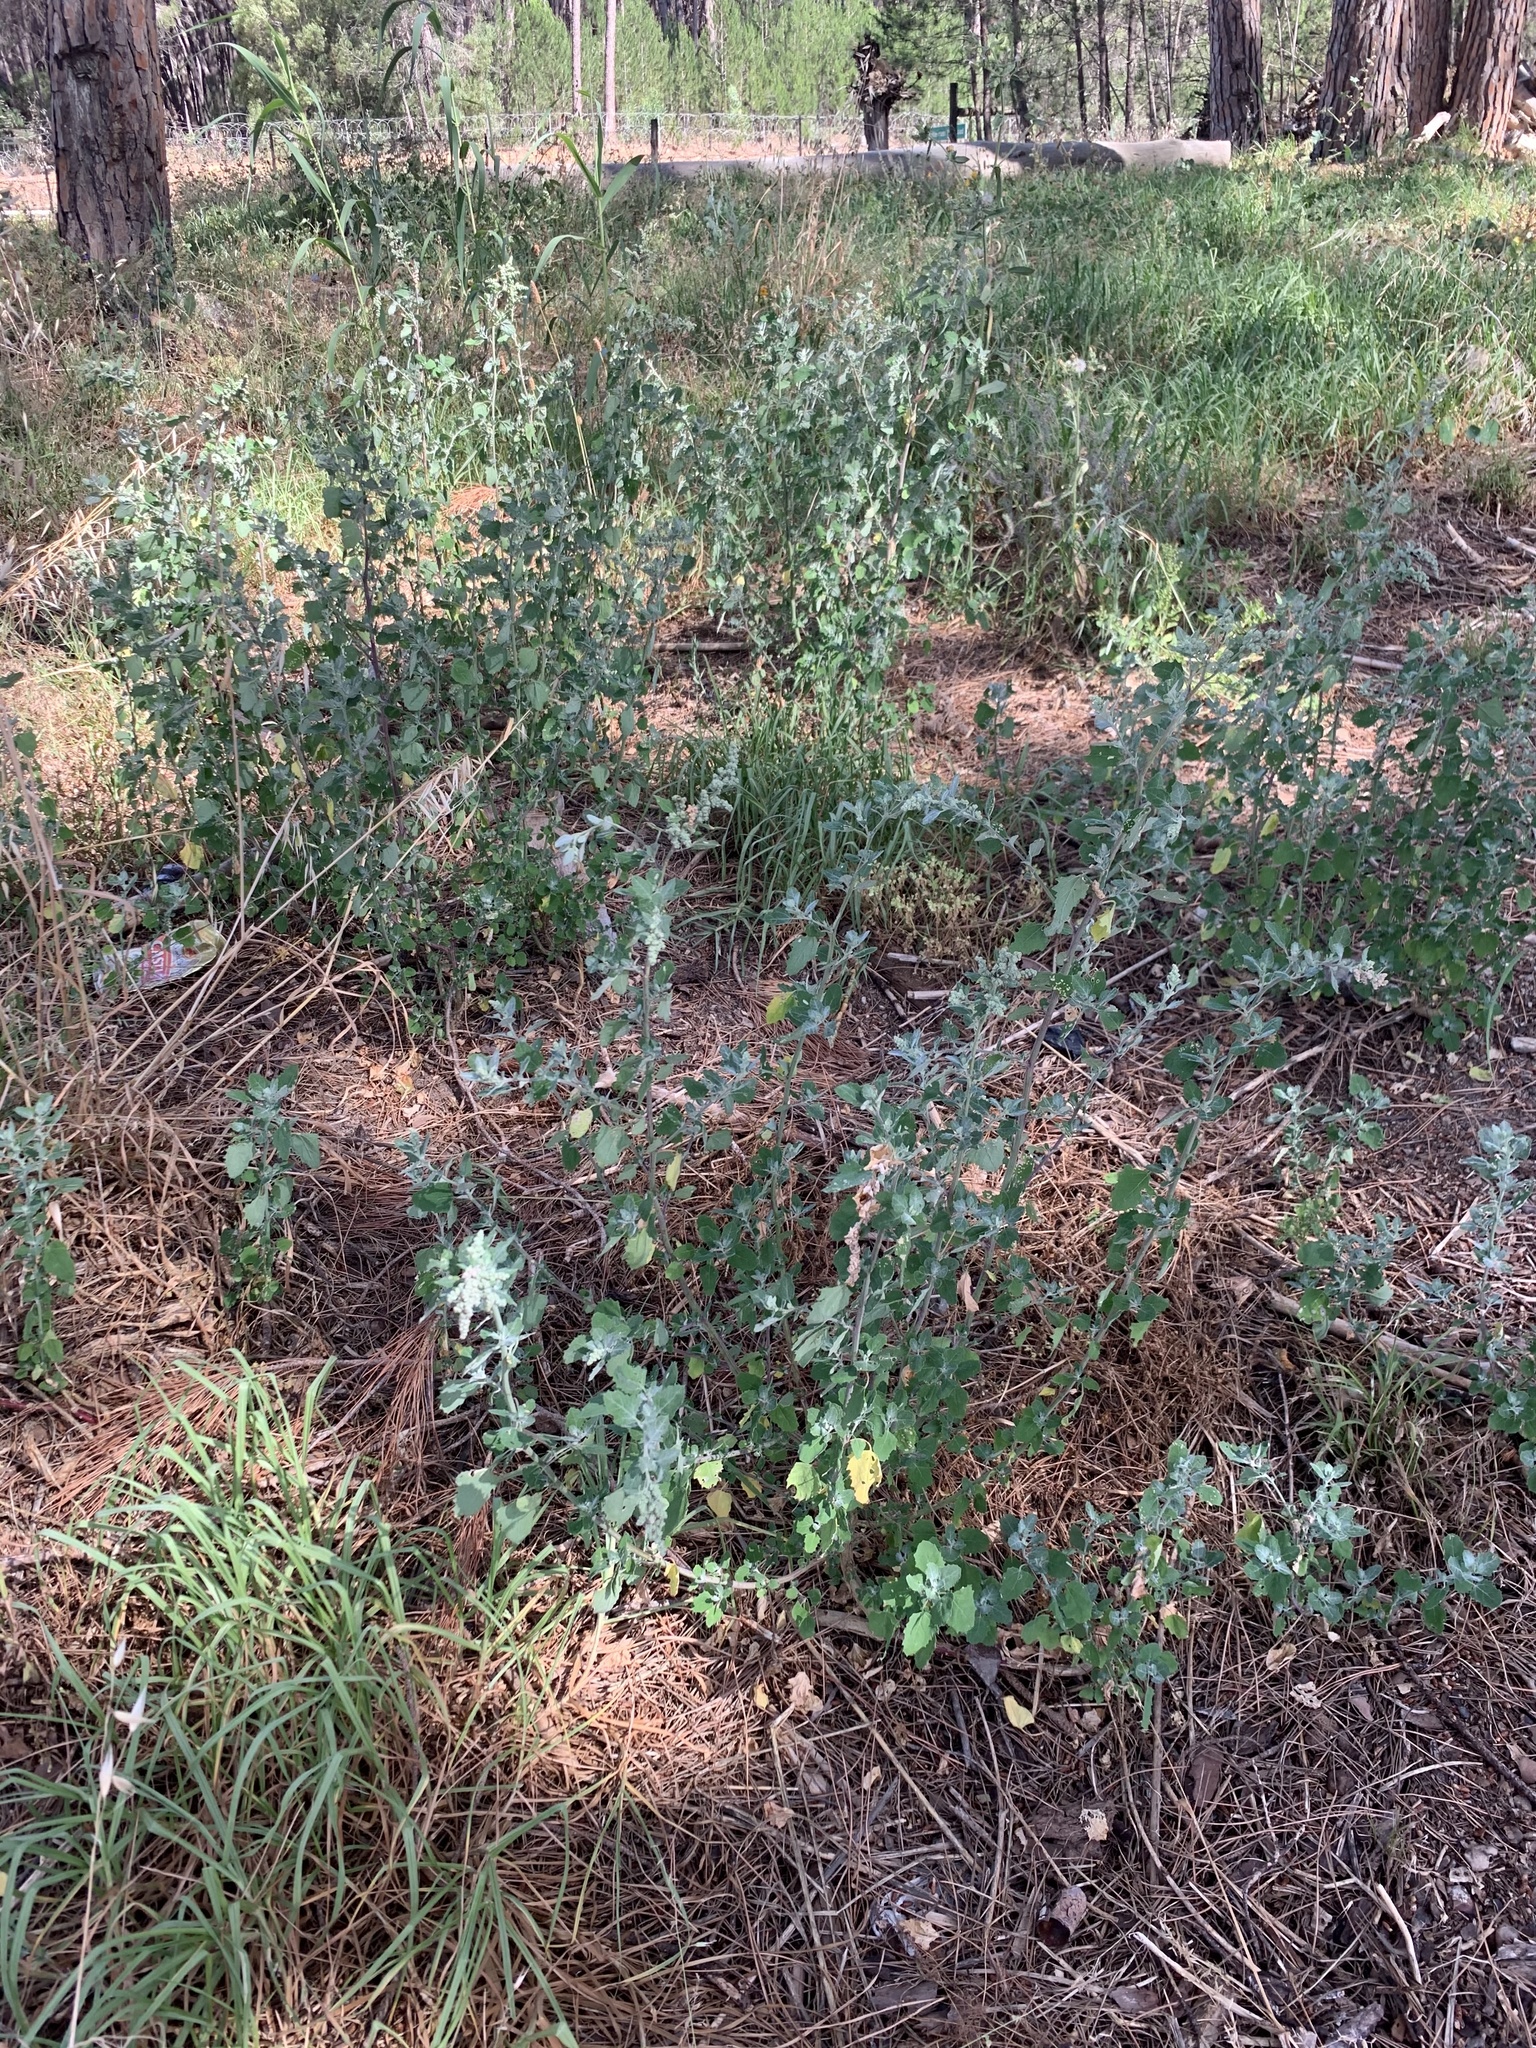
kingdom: Plantae
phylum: Tracheophyta
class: Magnoliopsida
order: Caryophyllales
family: Amaranthaceae
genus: Chenopodium
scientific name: Chenopodium album
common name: Fat-hen
